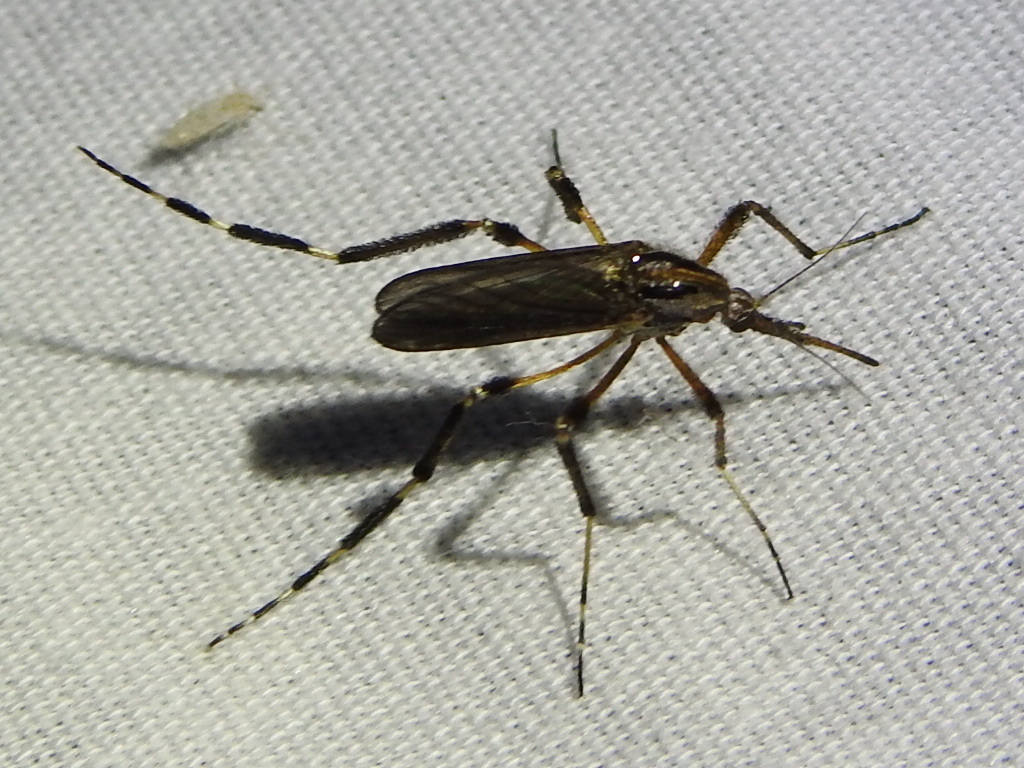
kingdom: Animalia
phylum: Arthropoda
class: Insecta
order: Diptera
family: Culicidae
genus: Psorophora
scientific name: Psorophora ciliata
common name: Gallinipper
